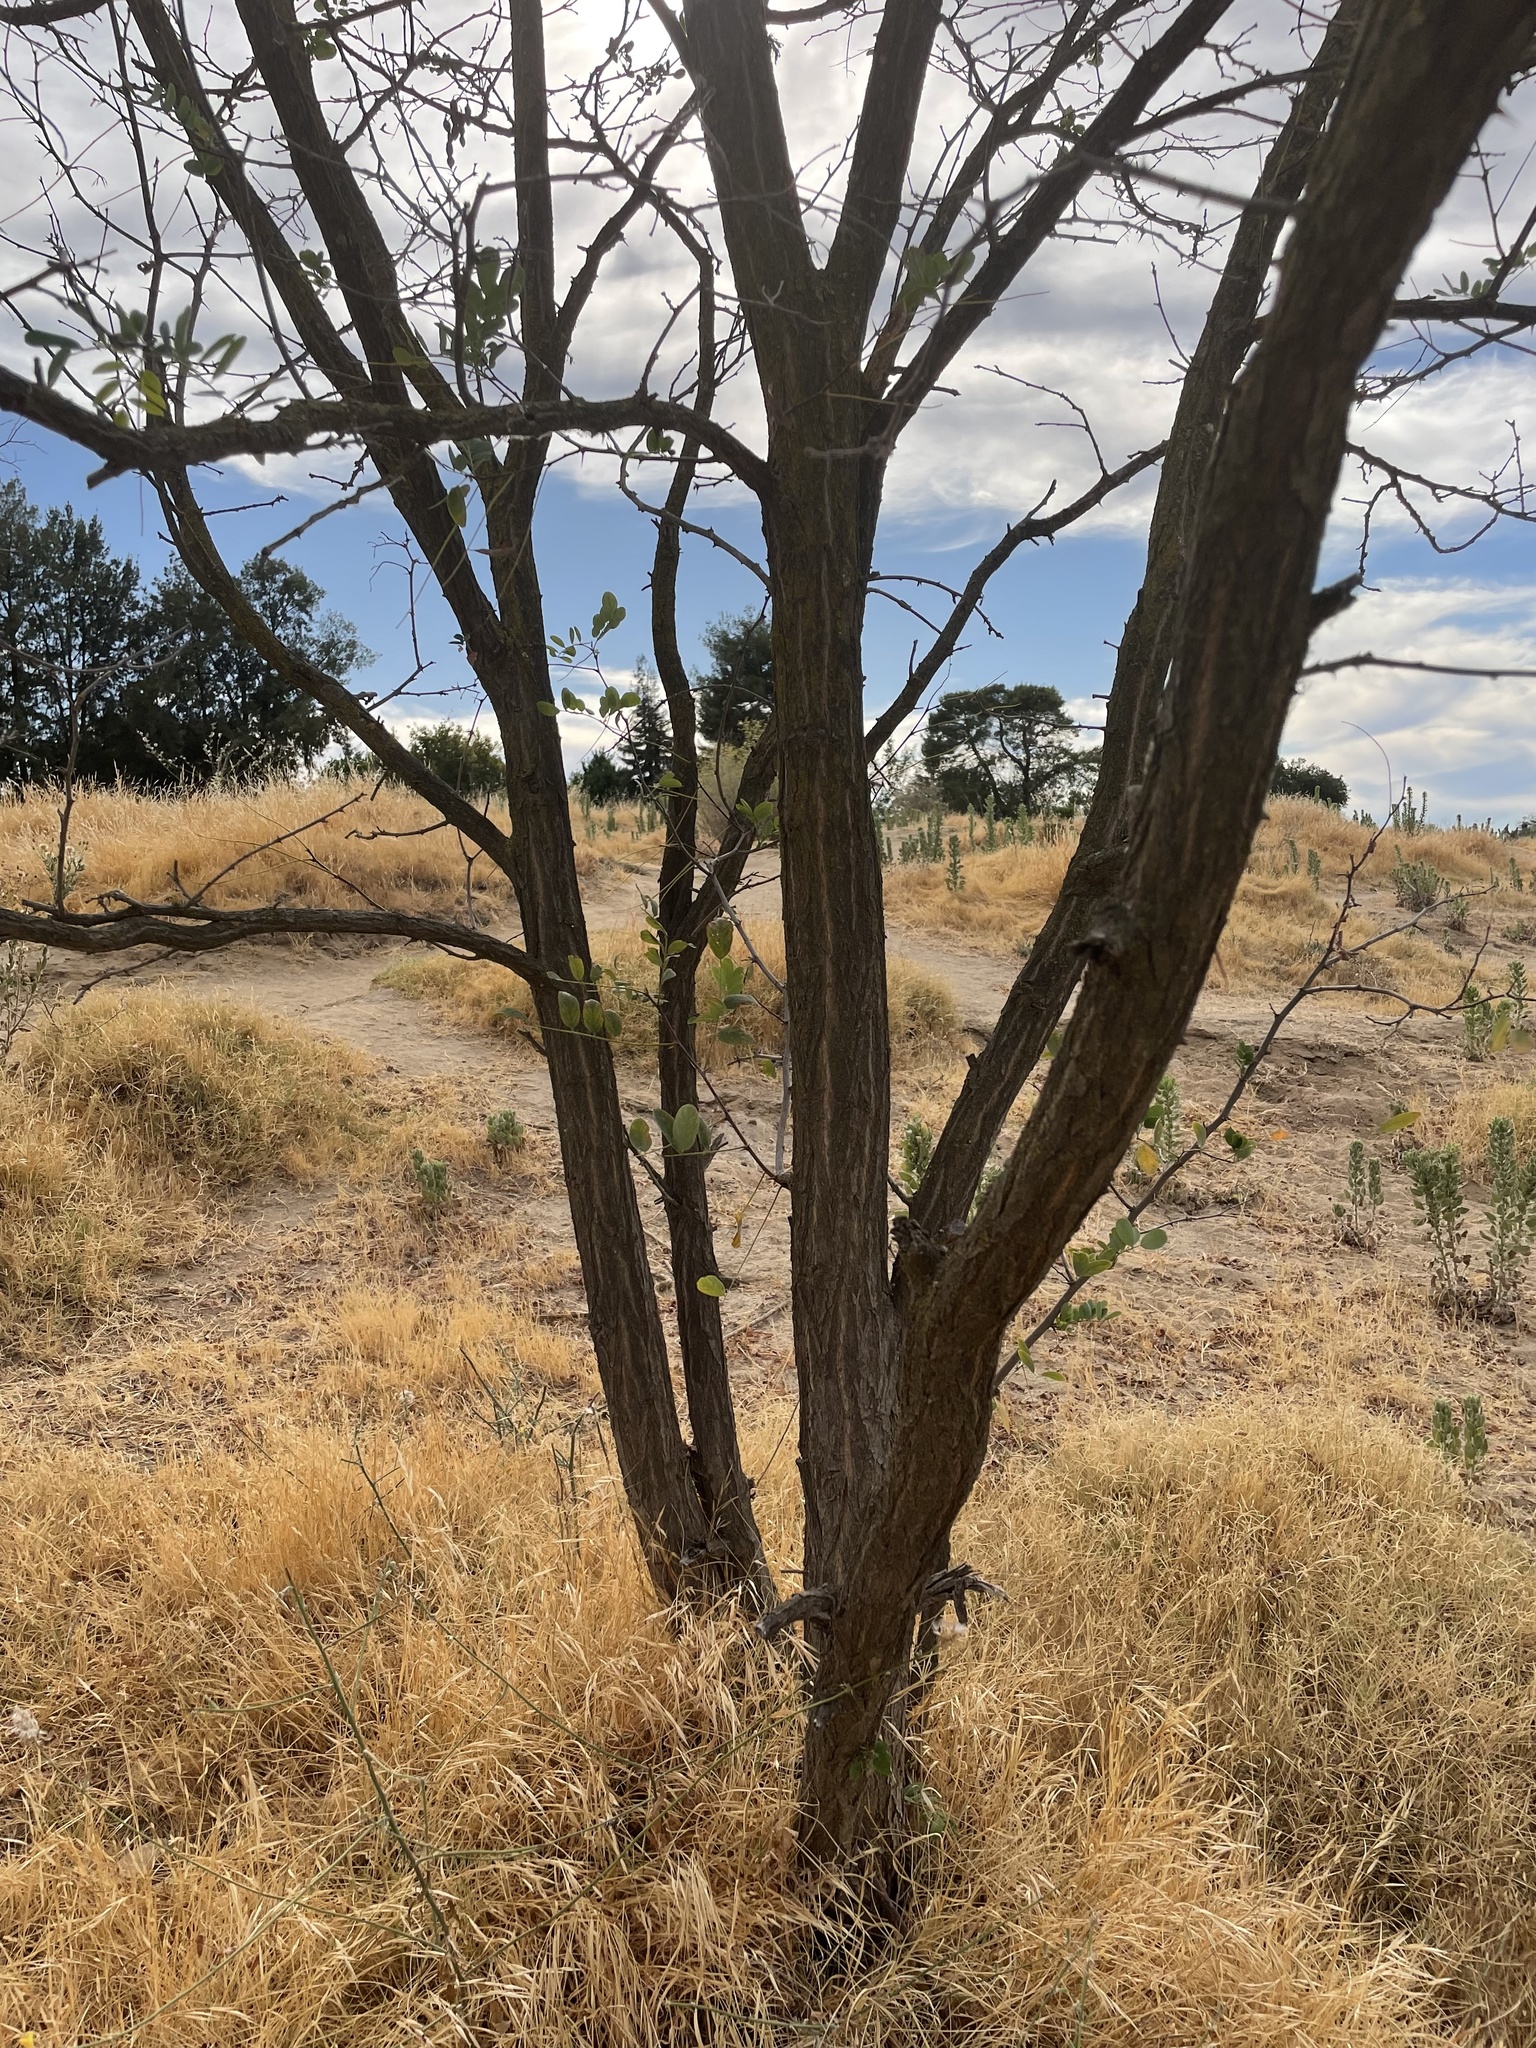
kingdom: Plantae
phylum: Tracheophyta
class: Magnoliopsida
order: Fabales
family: Fabaceae
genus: Robinia
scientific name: Robinia pseudoacacia
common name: Black locust
